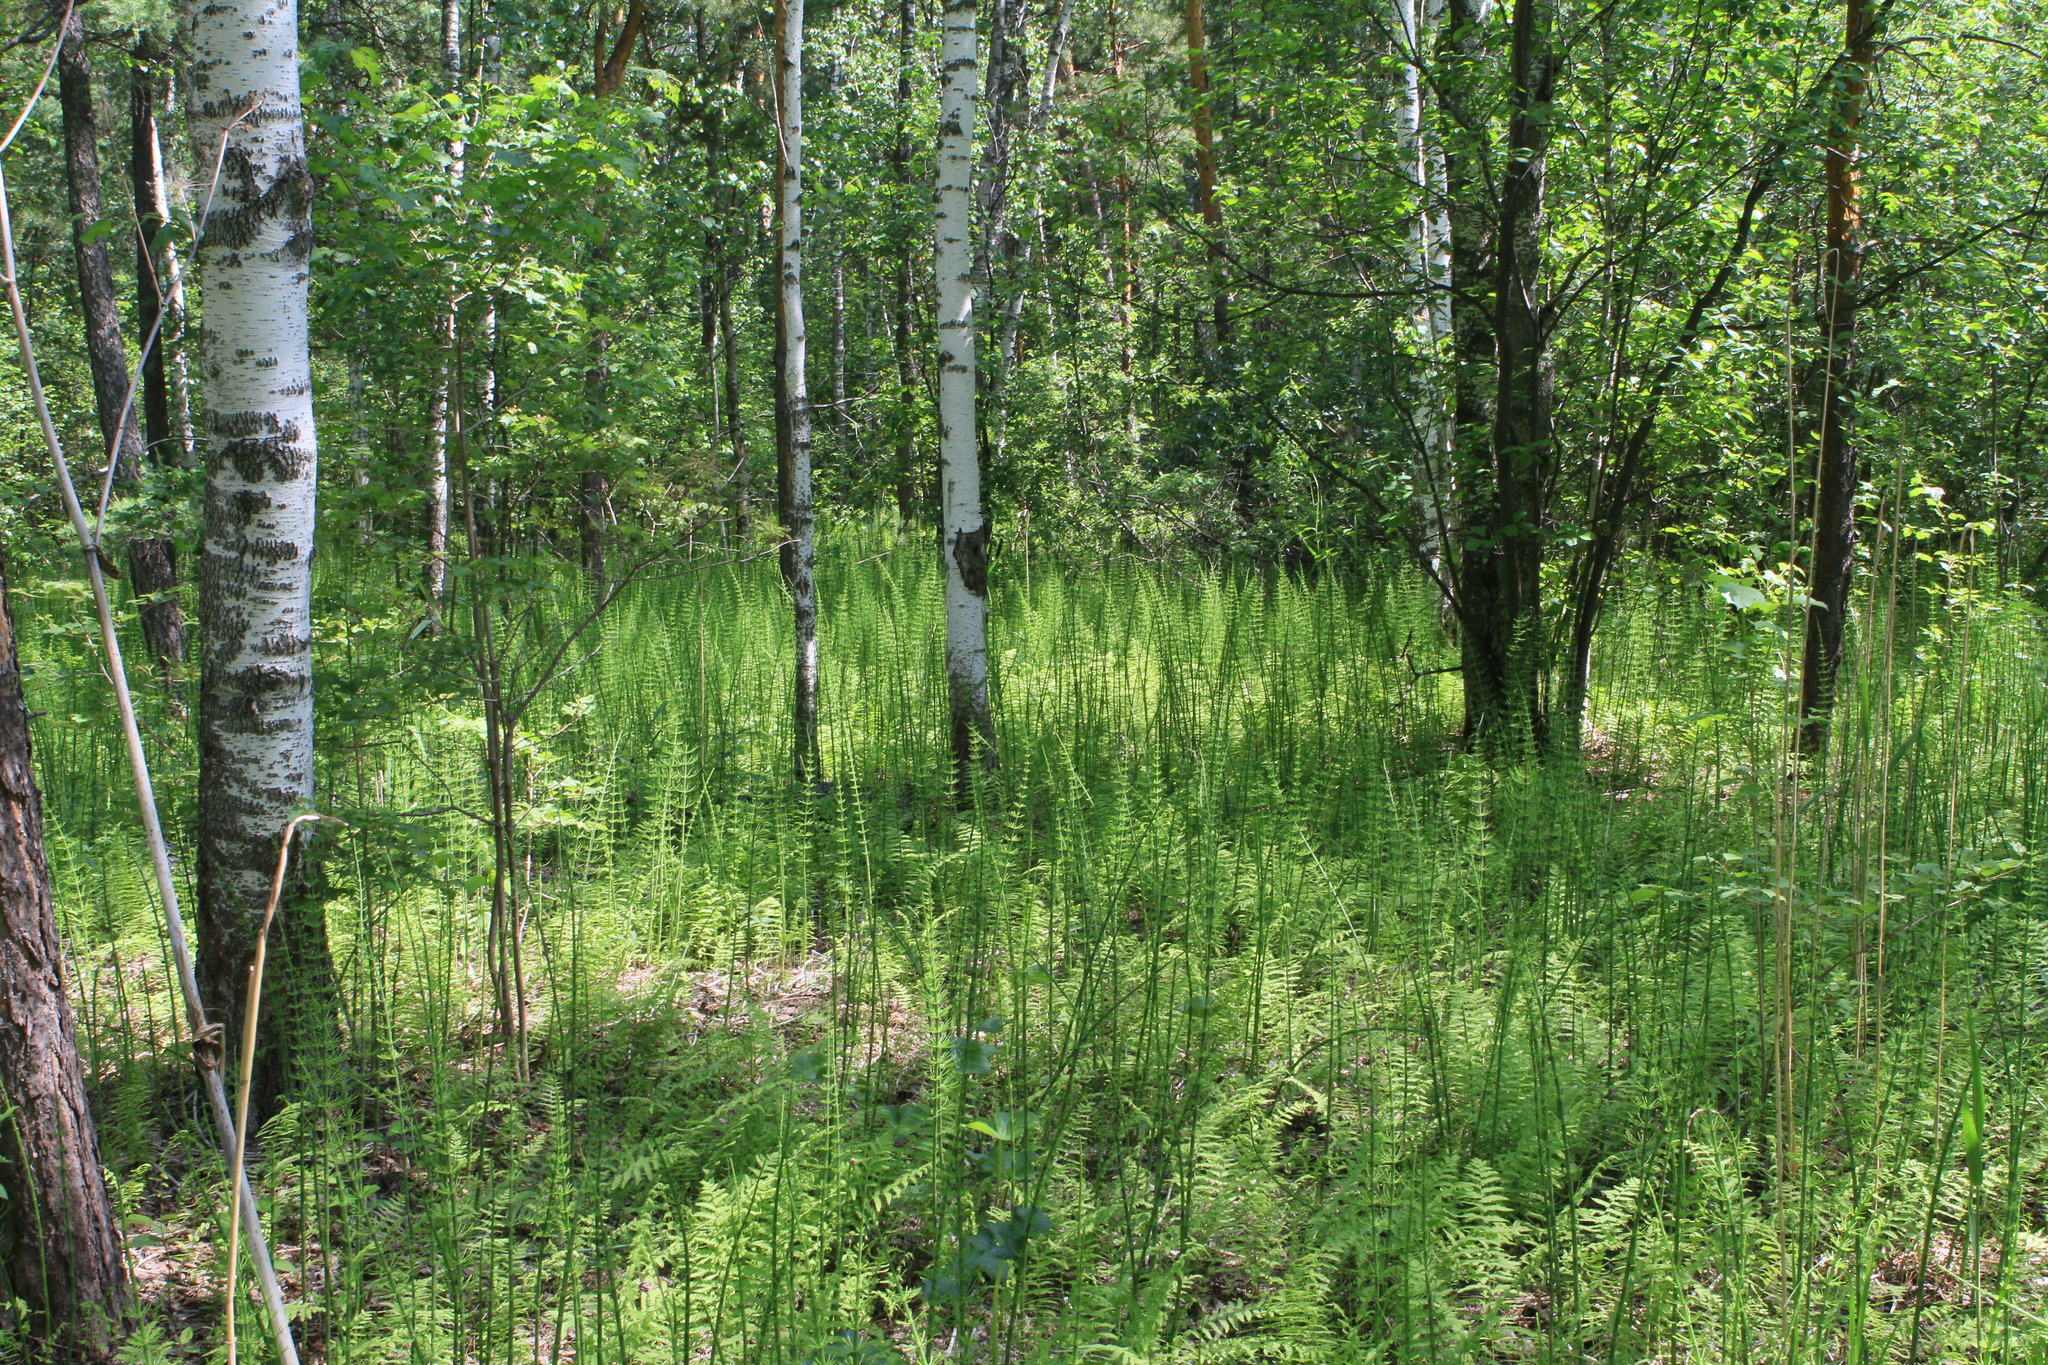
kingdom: Plantae
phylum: Tracheophyta
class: Polypodiopsida
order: Equisetales
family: Equisetaceae
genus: Equisetum
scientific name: Equisetum fluviatile
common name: Water horsetail
